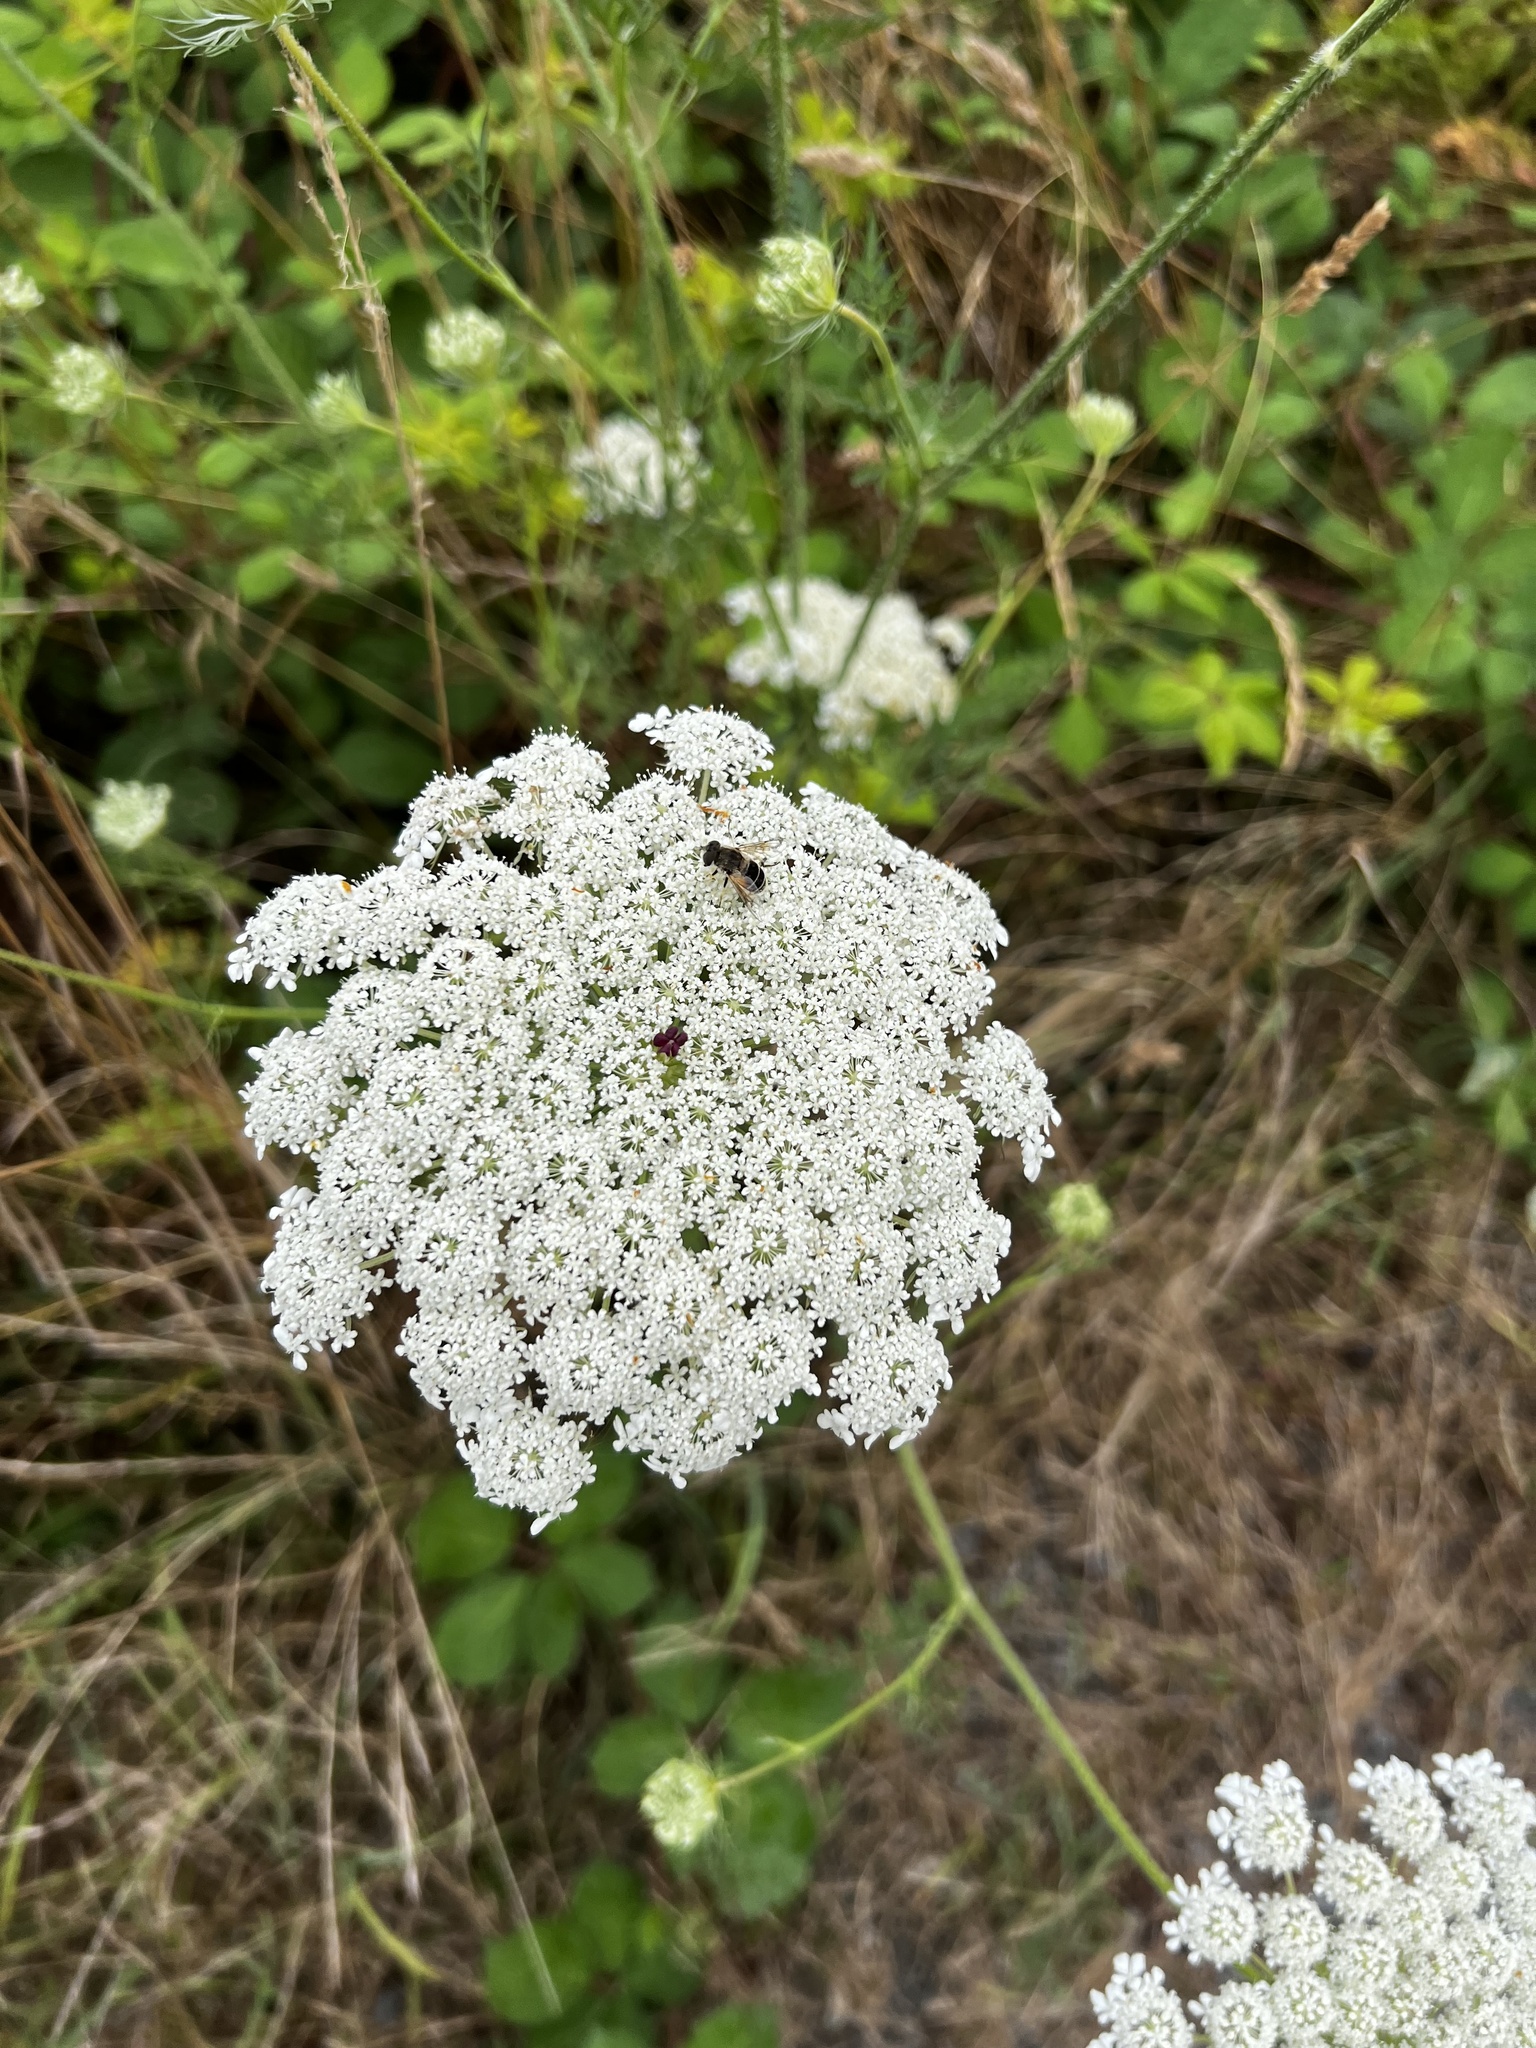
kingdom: Plantae
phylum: Tracheophyta
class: Magnoliopsida
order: Apiales
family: Apiaceae
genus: Daucus
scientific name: Daucus carota
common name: Wild carrot
